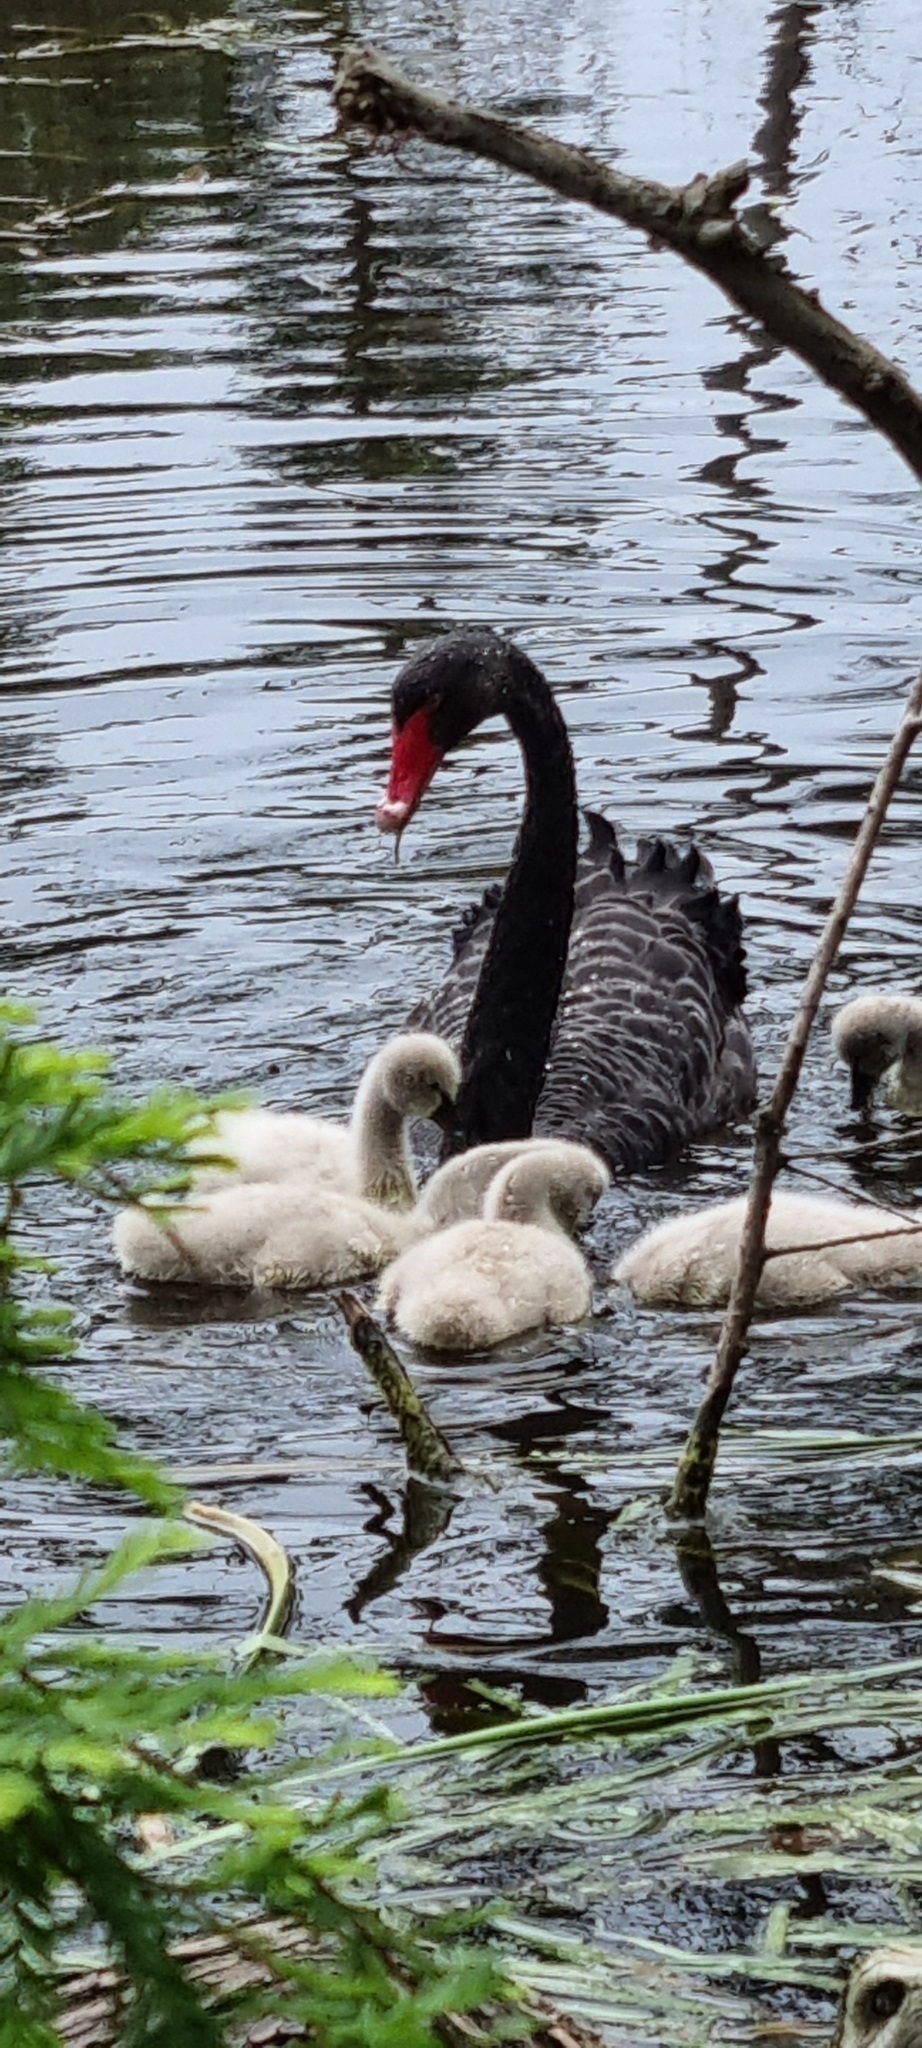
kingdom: Animalia
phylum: Chordata
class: Aves
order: Anseriformes
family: Anatidae
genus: Cygnus
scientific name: Cygnus atratus
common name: Black swan
